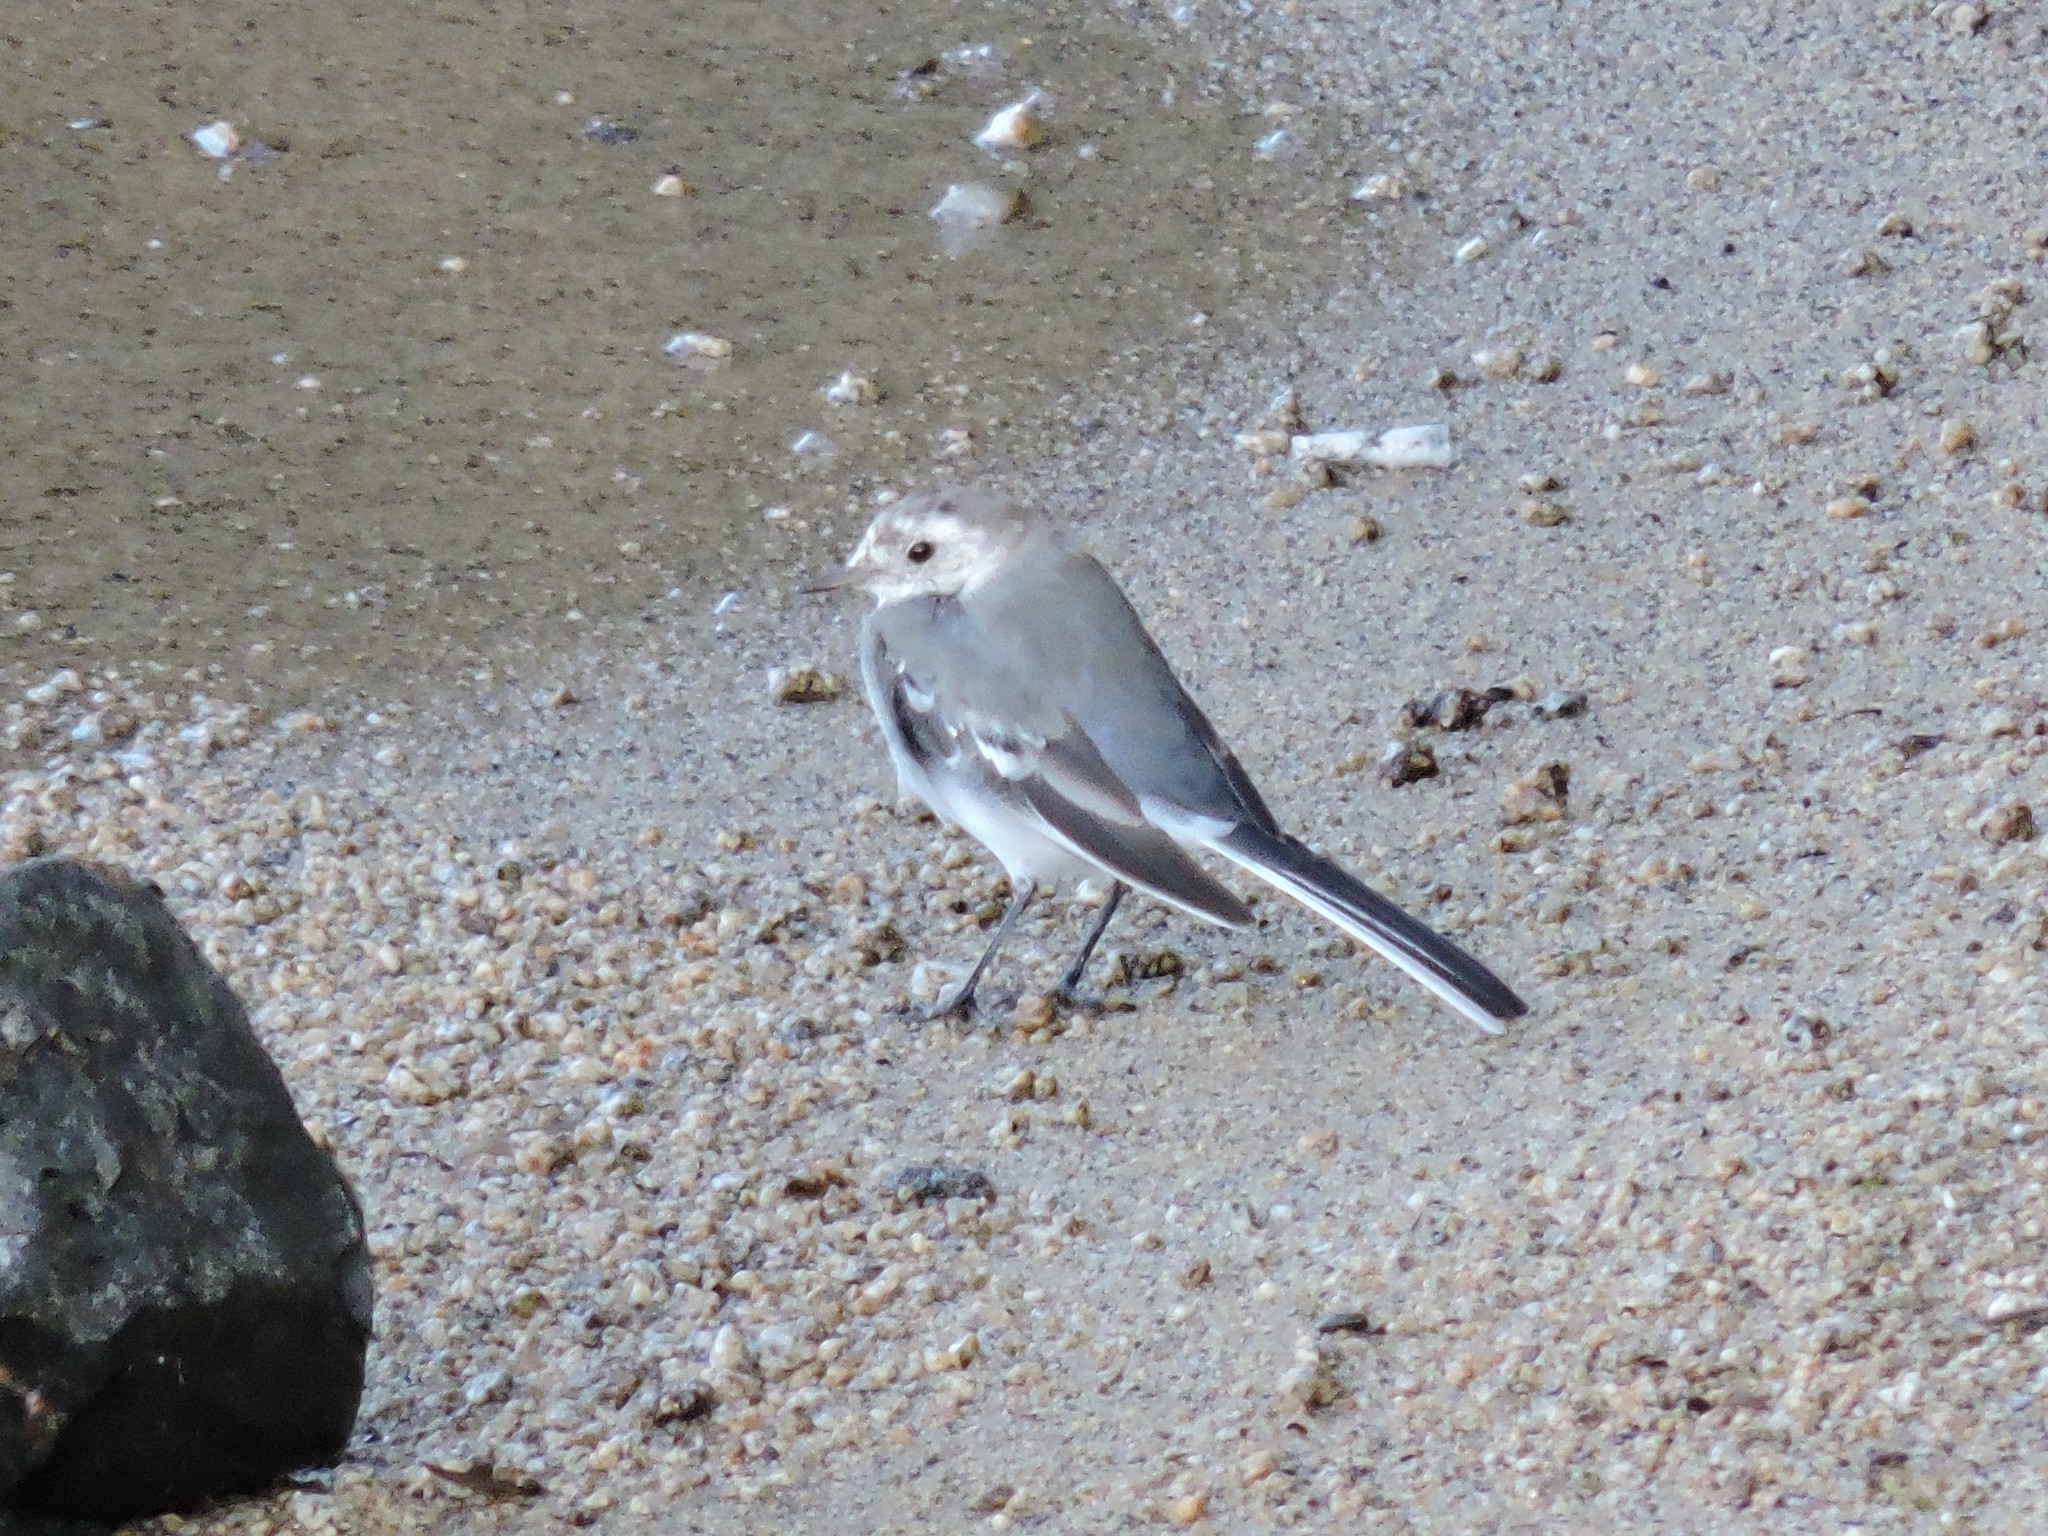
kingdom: Animalia
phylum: Chordata
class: Aves
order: Passeriformes
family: Motacillidae
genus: Motacilla
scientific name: Motacilla alba
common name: White wagtail
